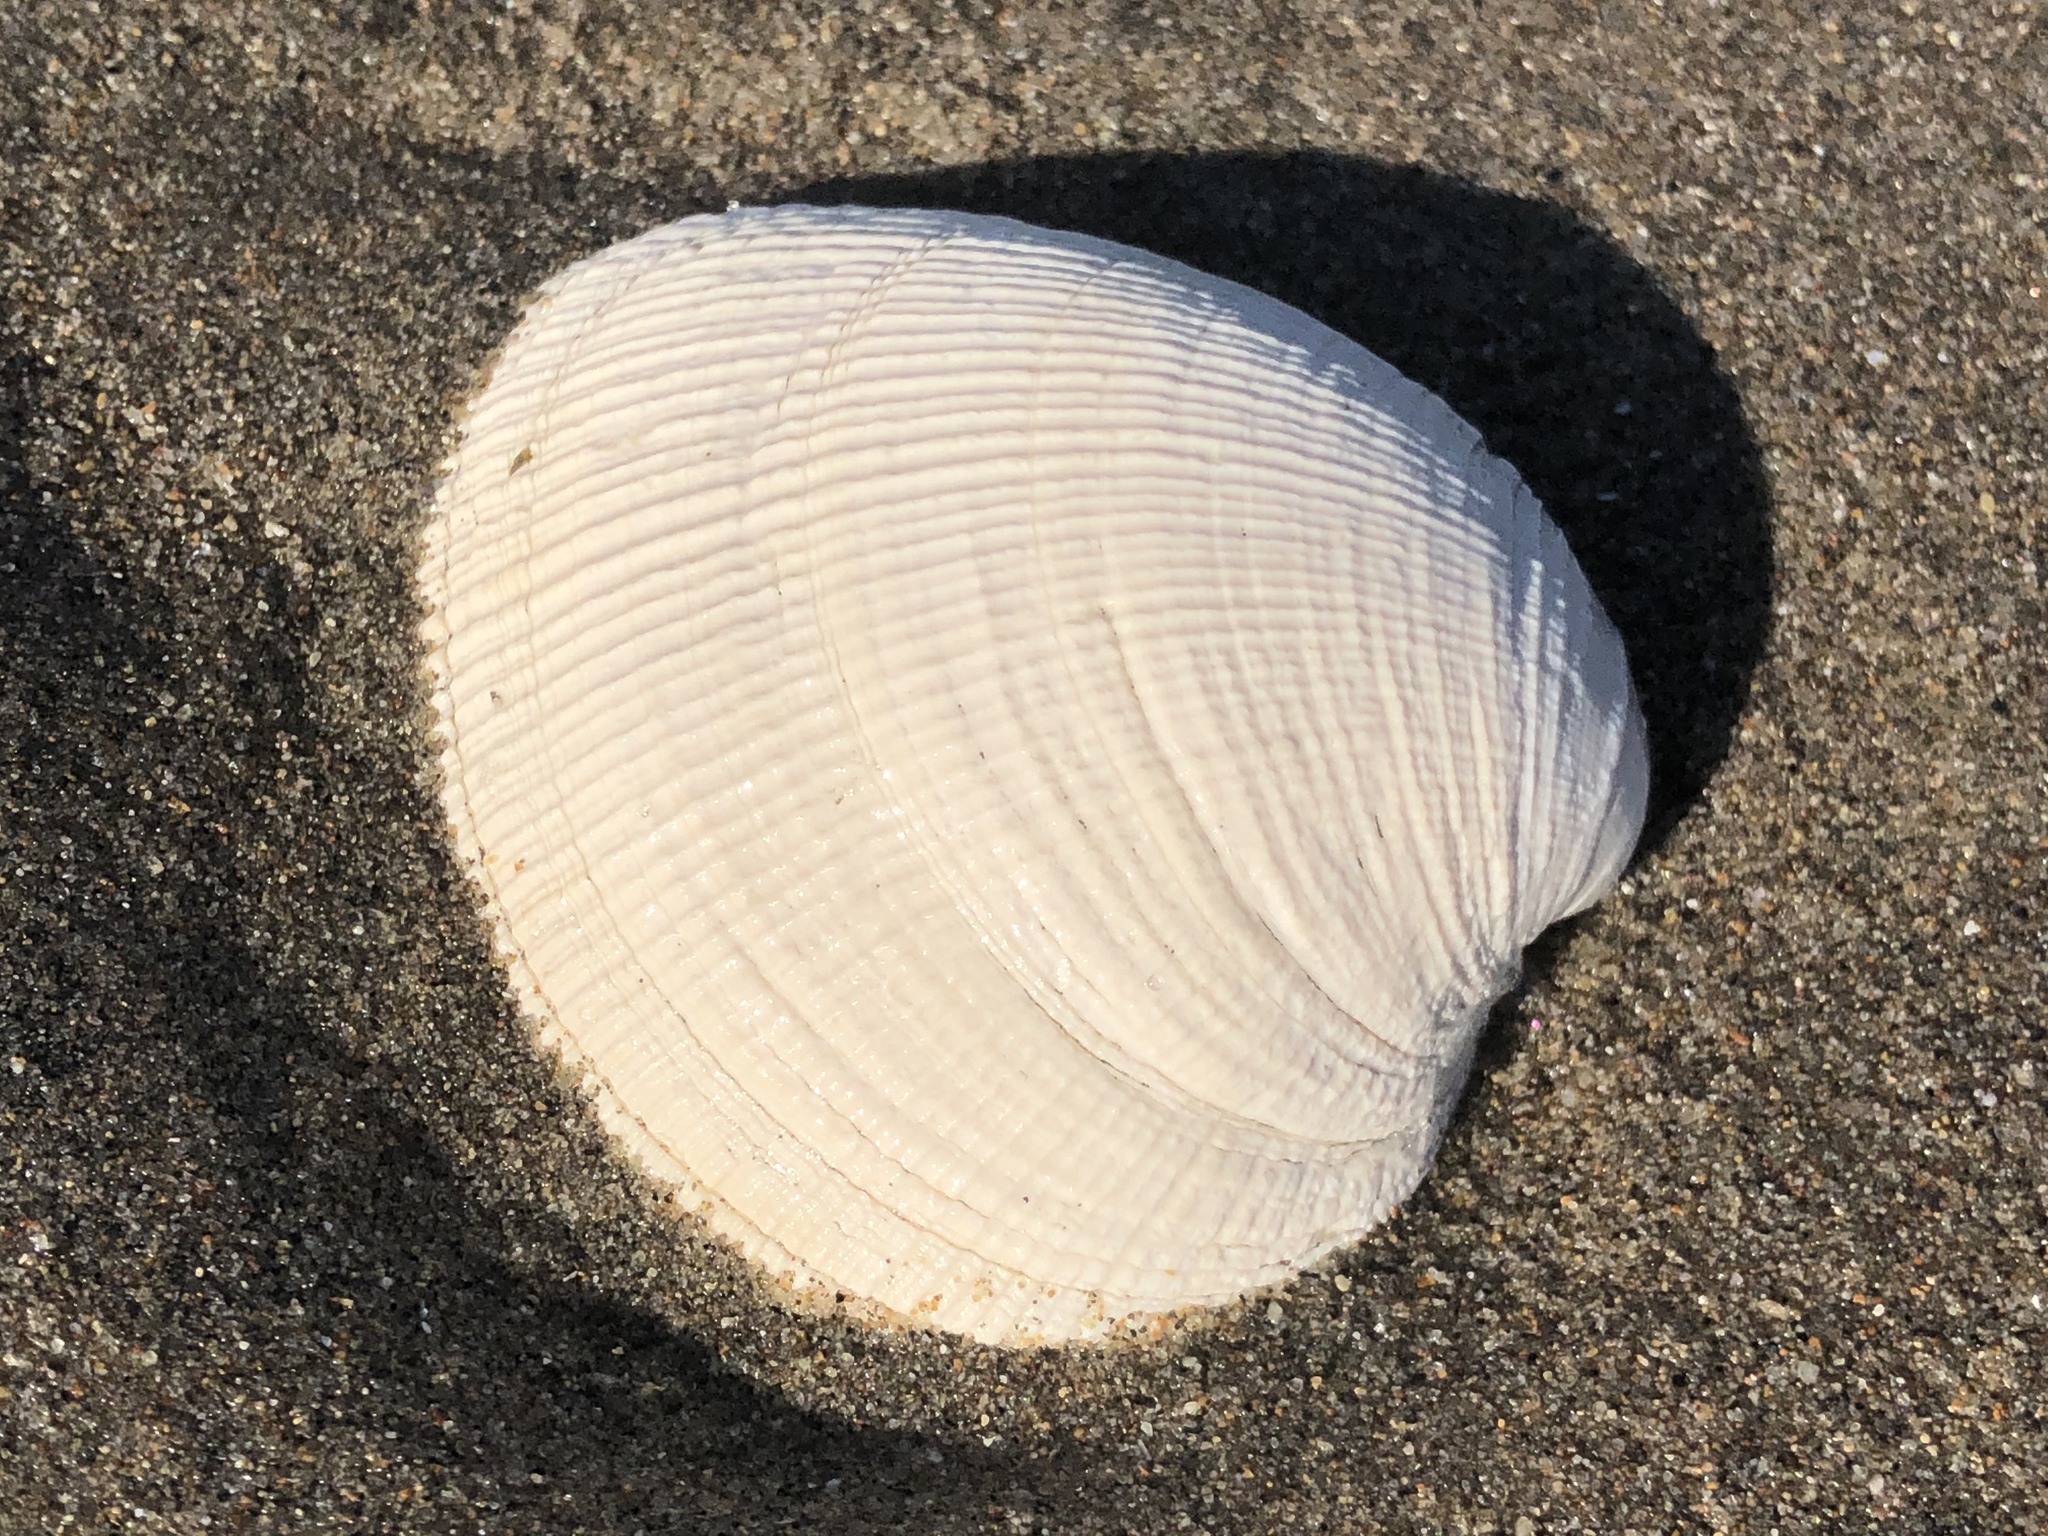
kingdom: Animalia
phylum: Mollusca
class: Bivalvia
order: Venerida
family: Veneridae
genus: Leukoma
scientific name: Leukoma staminea
